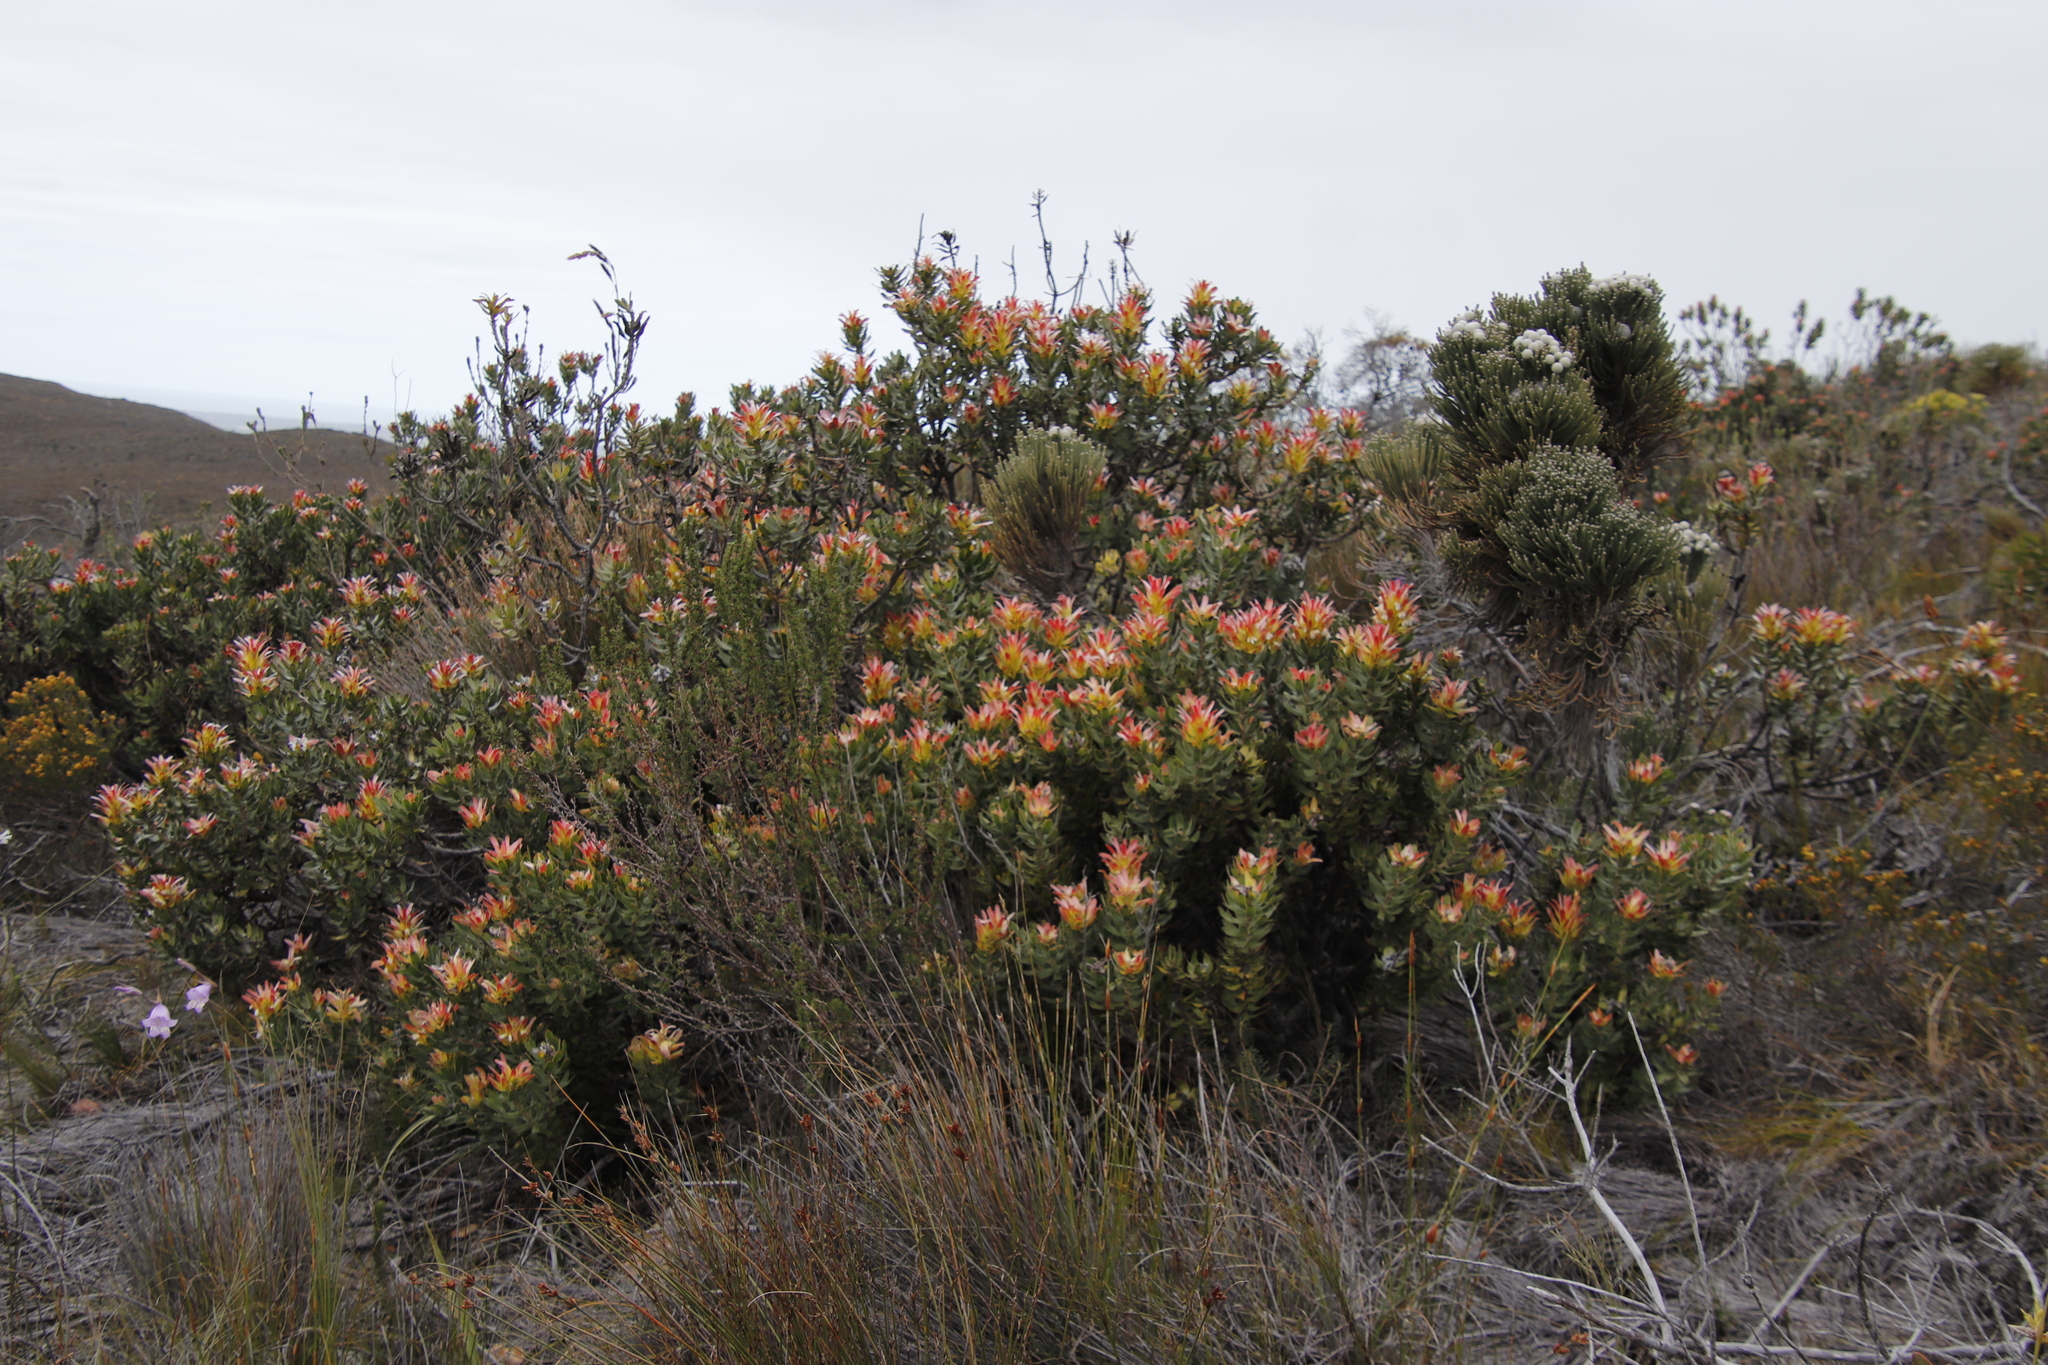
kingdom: Plantae
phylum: Tracheophyta
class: Magnoliopsida
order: Proteales
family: Proteaceae
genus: Mimetes
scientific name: Mimetes cucullatus
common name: Common pagoda
